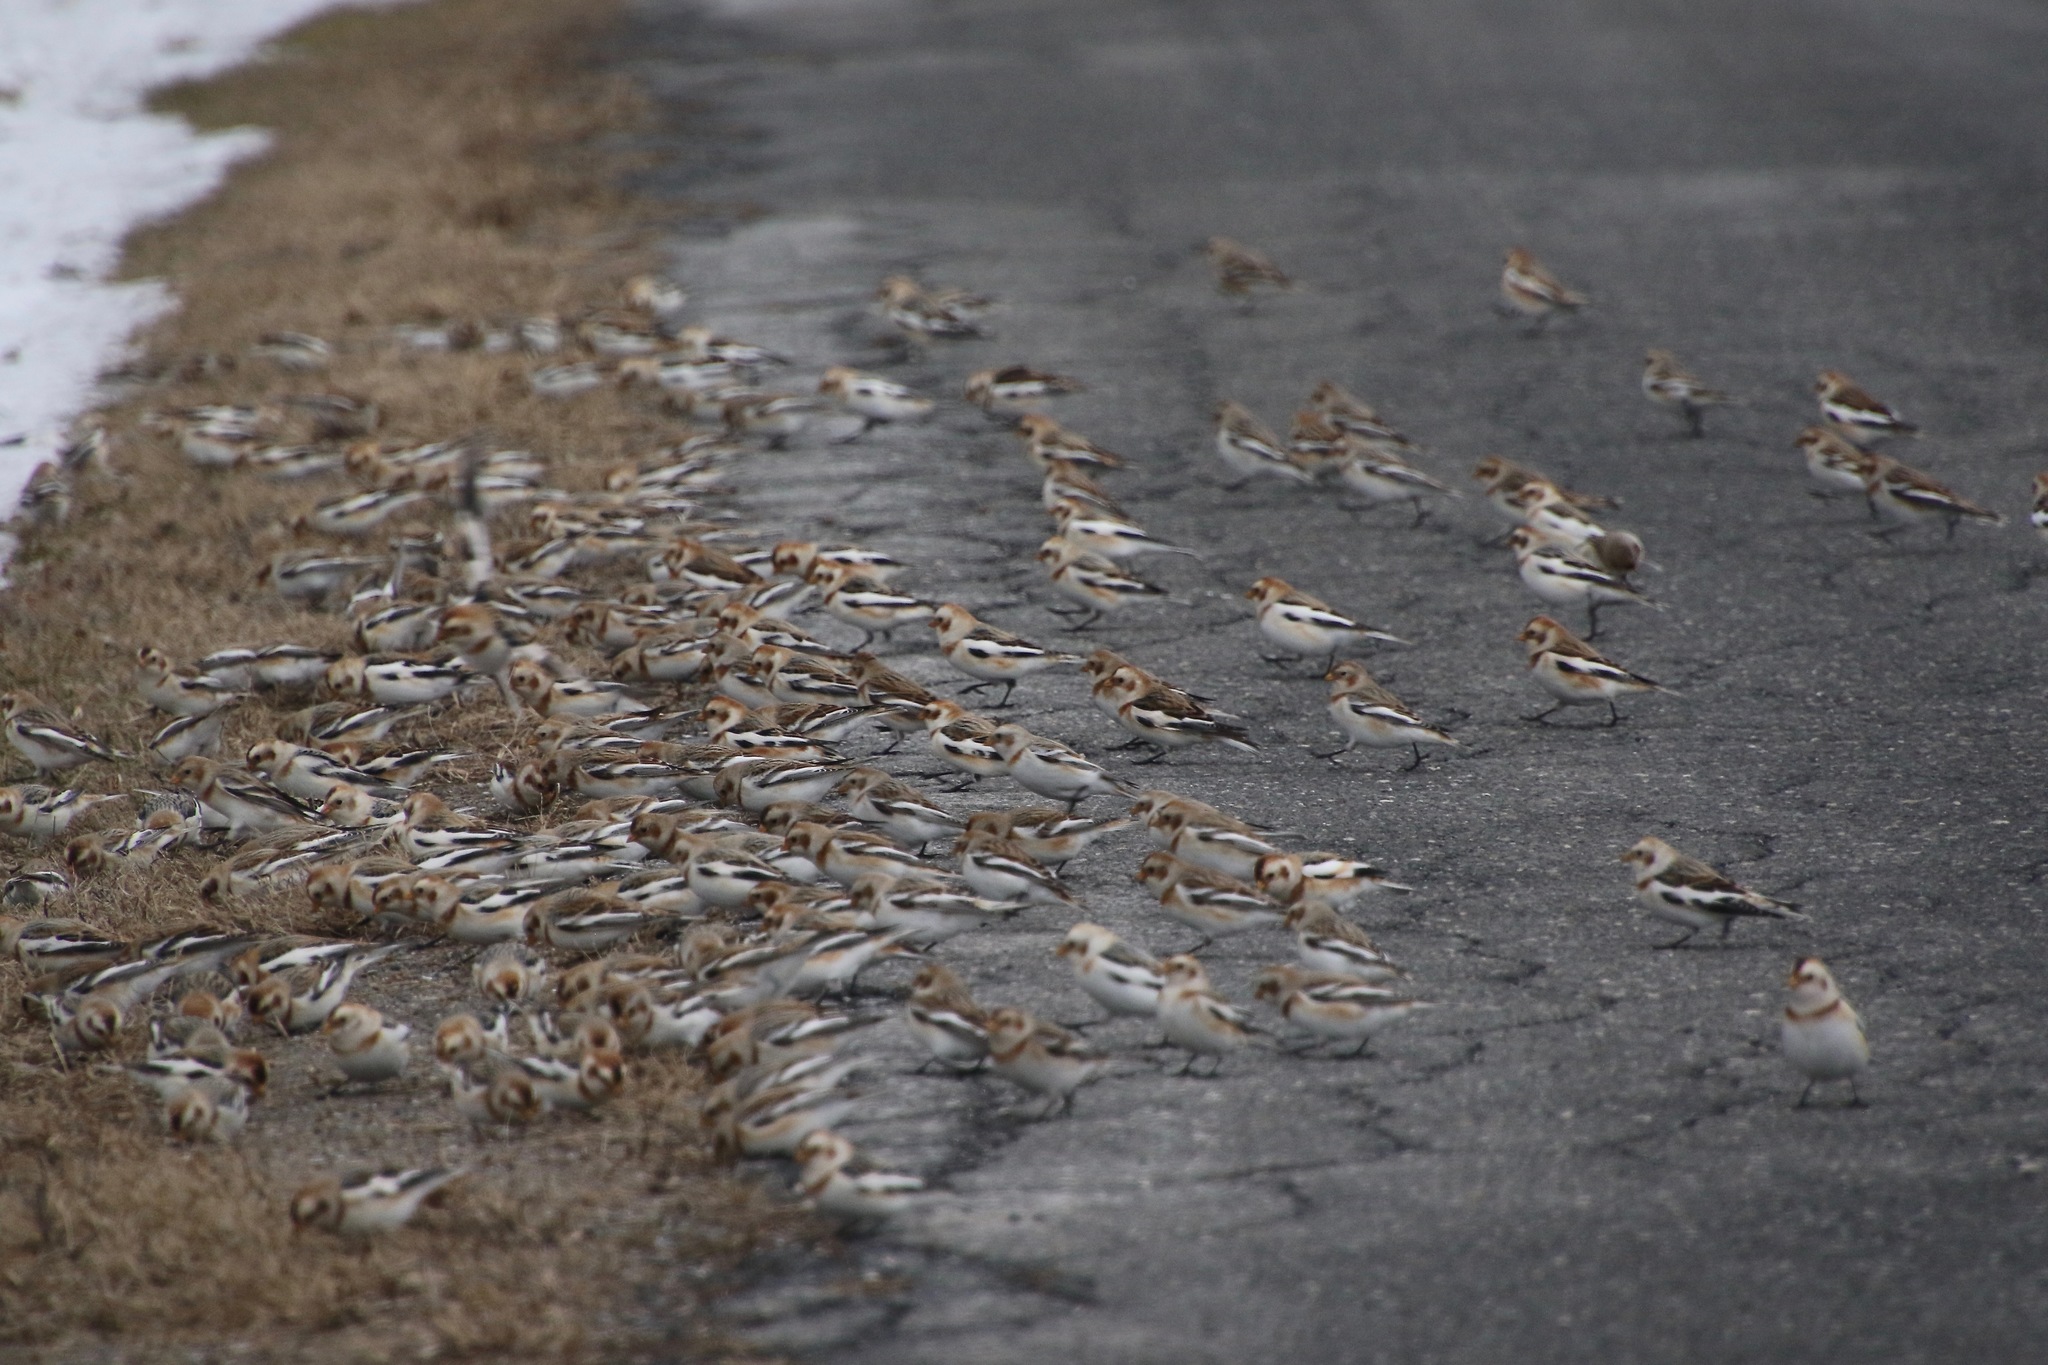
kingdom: Animalia
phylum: Chordata
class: Aves
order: Passeriformes
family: Calcariidae
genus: Plectrophenax
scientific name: Plectrophenax nivalis
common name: Snow bunting
